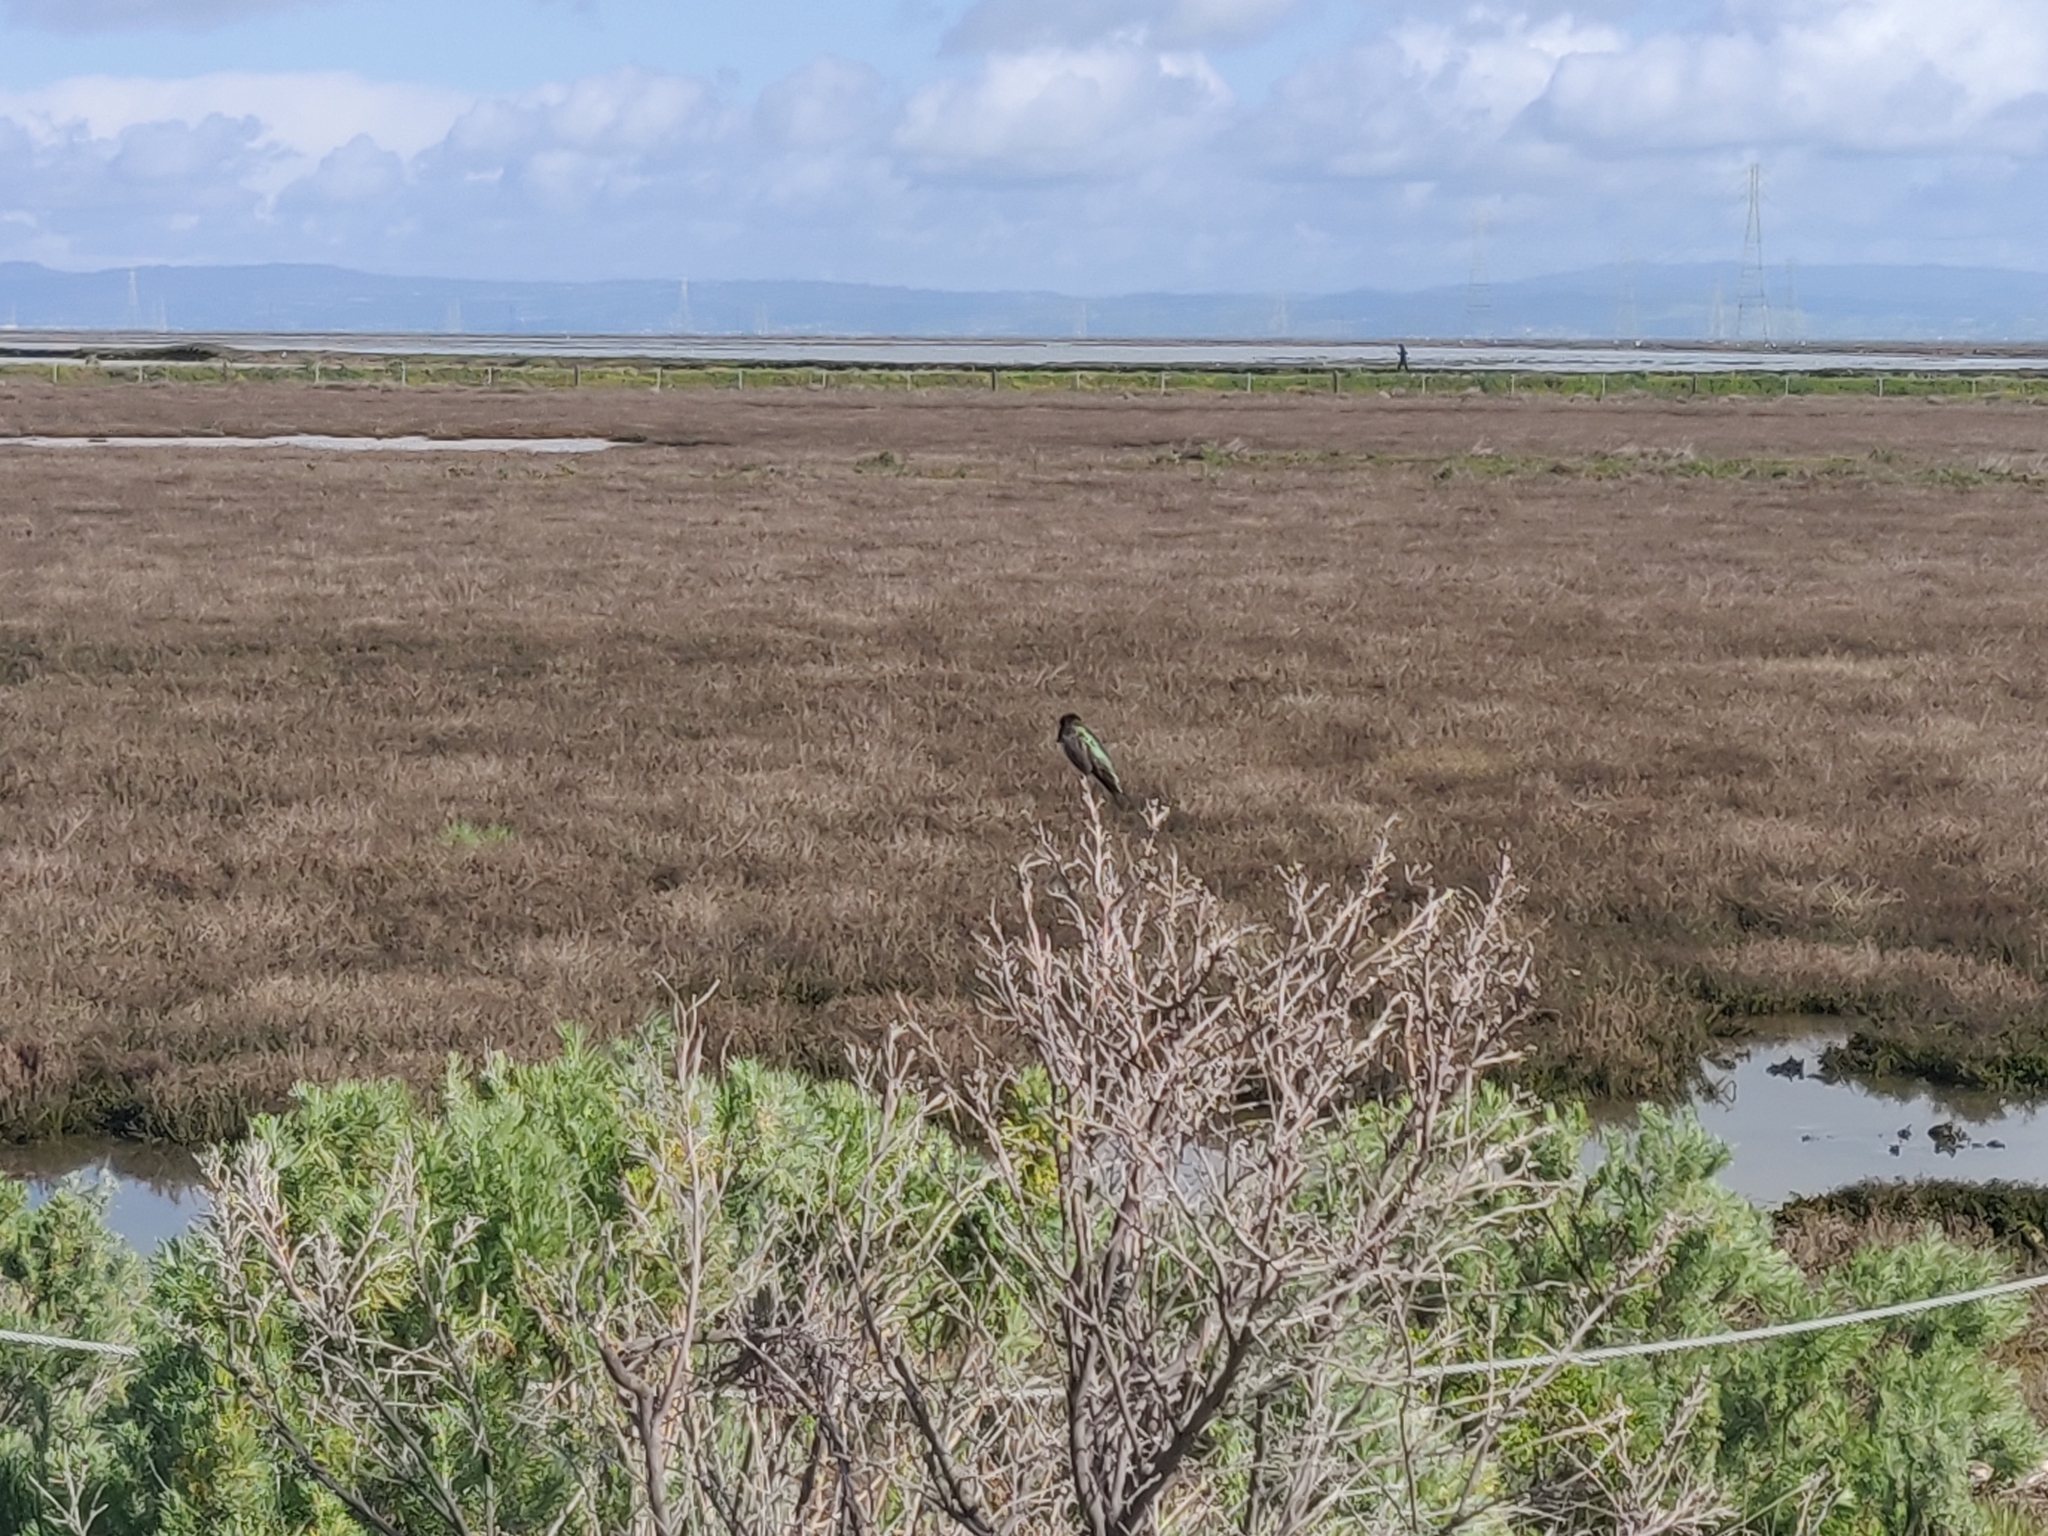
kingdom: Animalia
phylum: Chordata
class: Aves
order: Apodiformes
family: Trochilidae
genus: Calypte
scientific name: Calypte anna
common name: Anna's hummingbird
